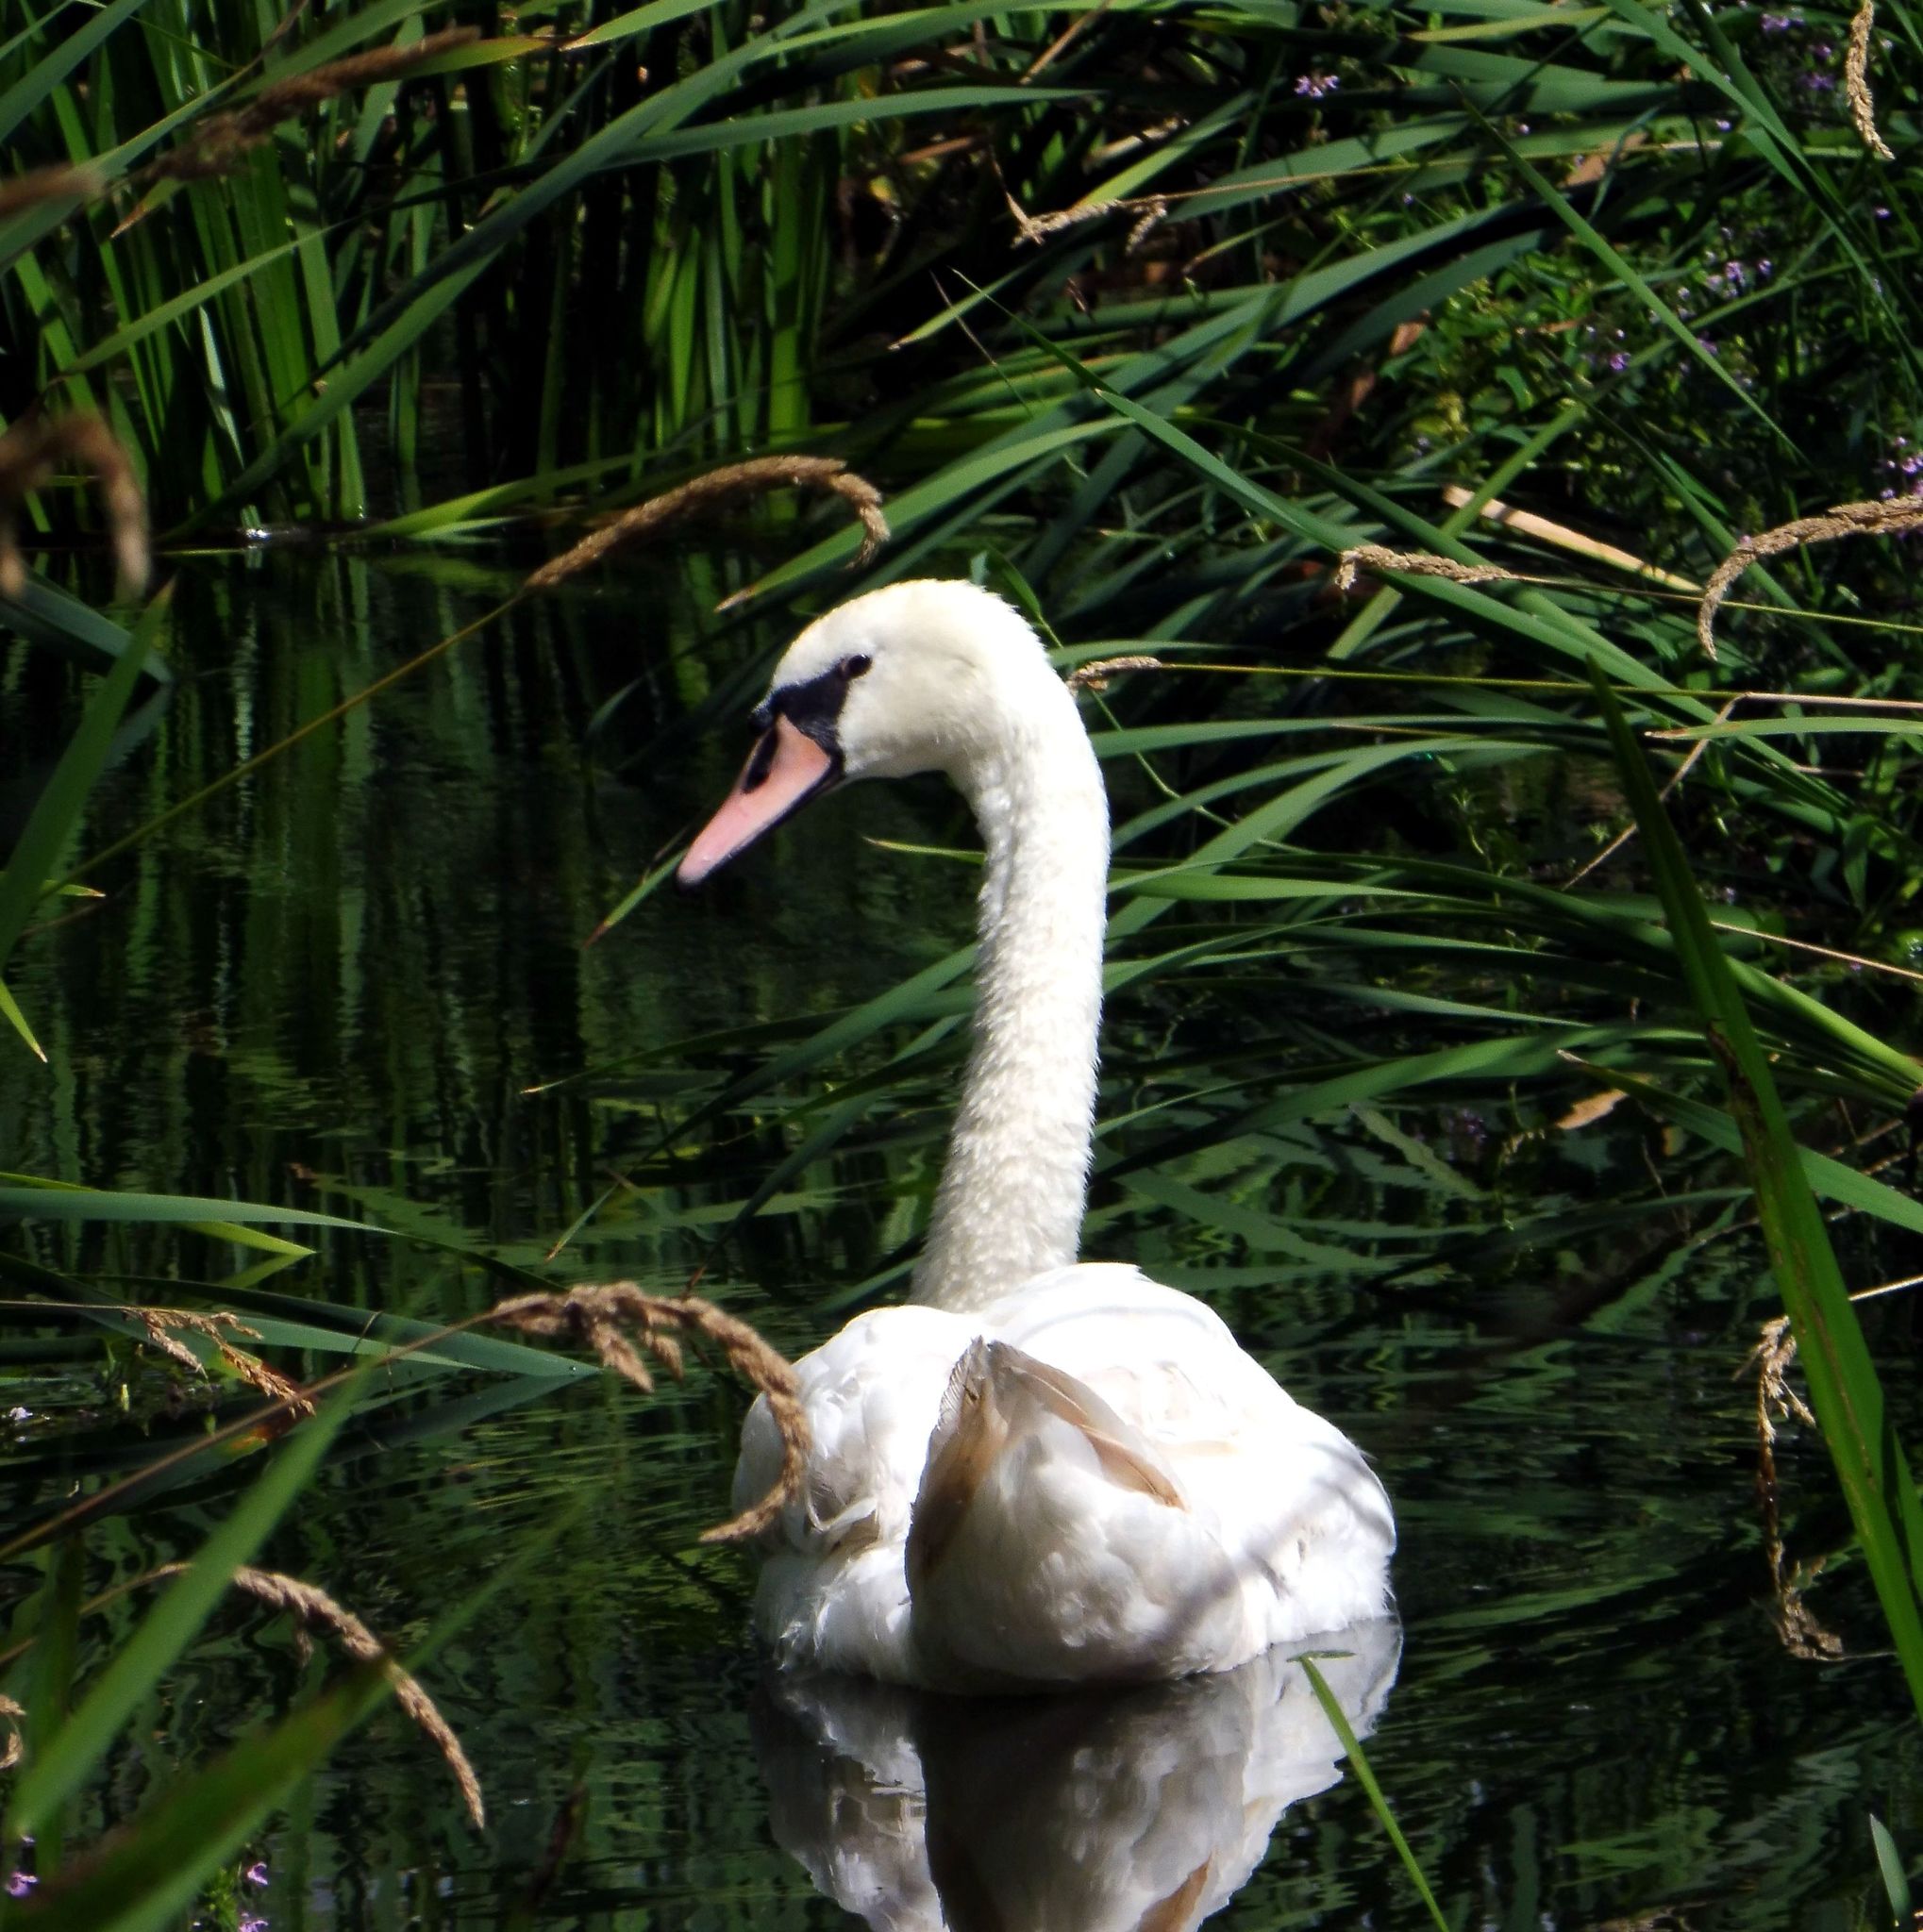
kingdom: Animalia
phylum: Chordata
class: Aves
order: Anseriformes
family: Anatidae
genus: Cygnus
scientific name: Cygnus olor
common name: Mute swan
